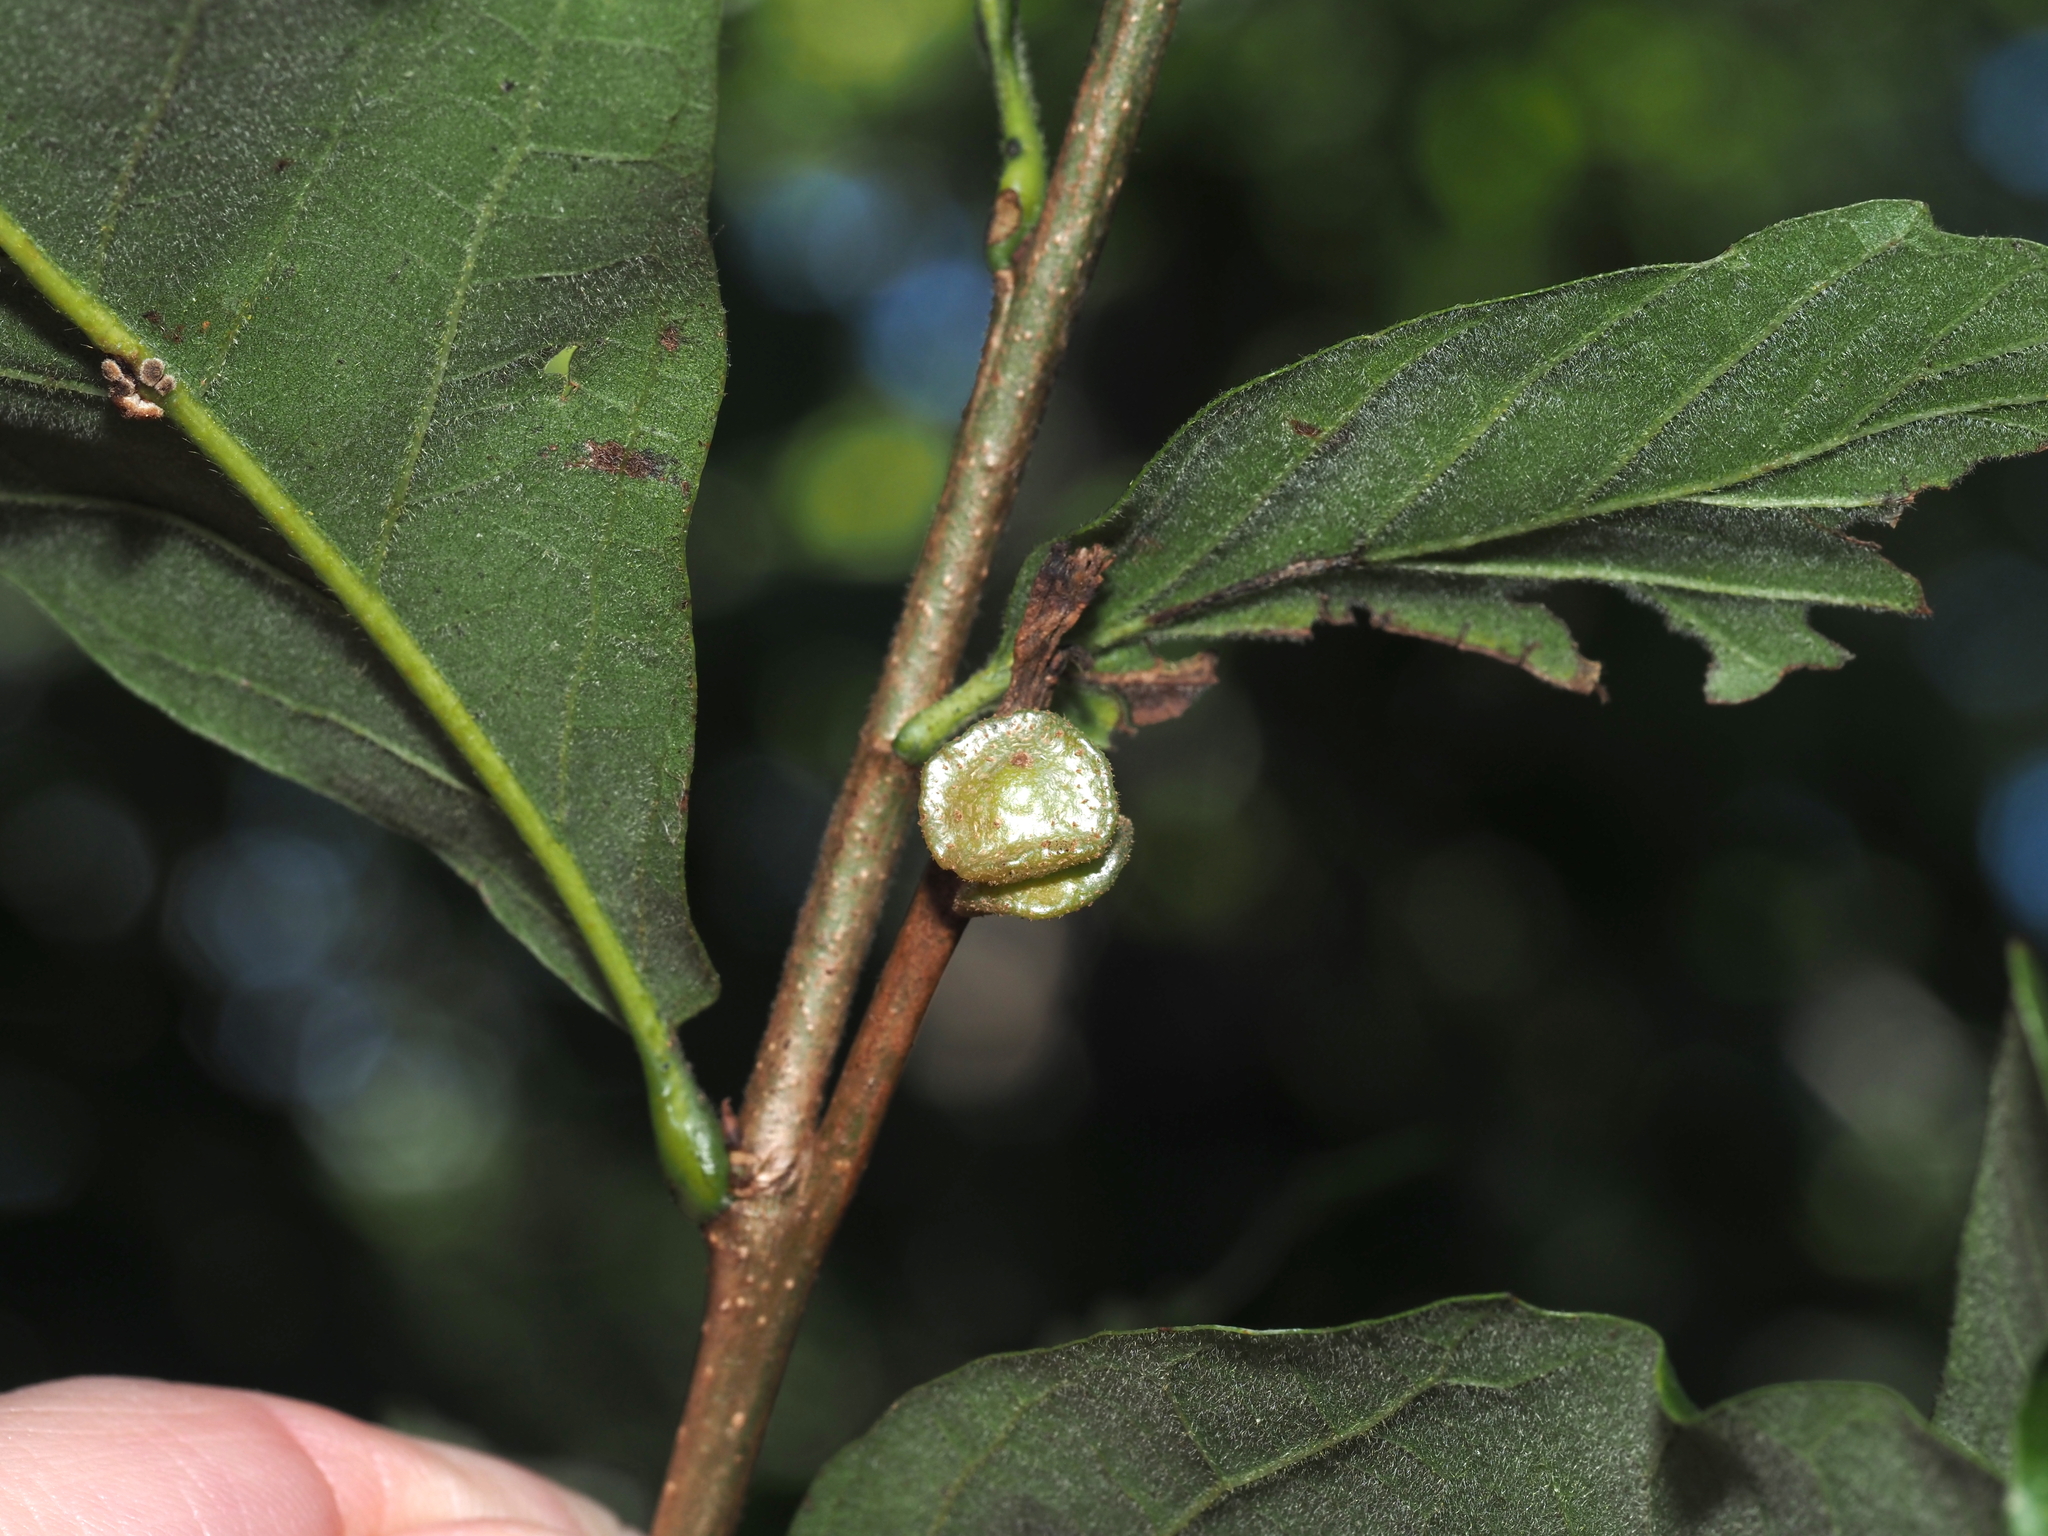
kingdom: Animalia
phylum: Arthropoda
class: Insecta
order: Hymenoptera
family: Cynipidae
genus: Andricus
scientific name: Andricus
